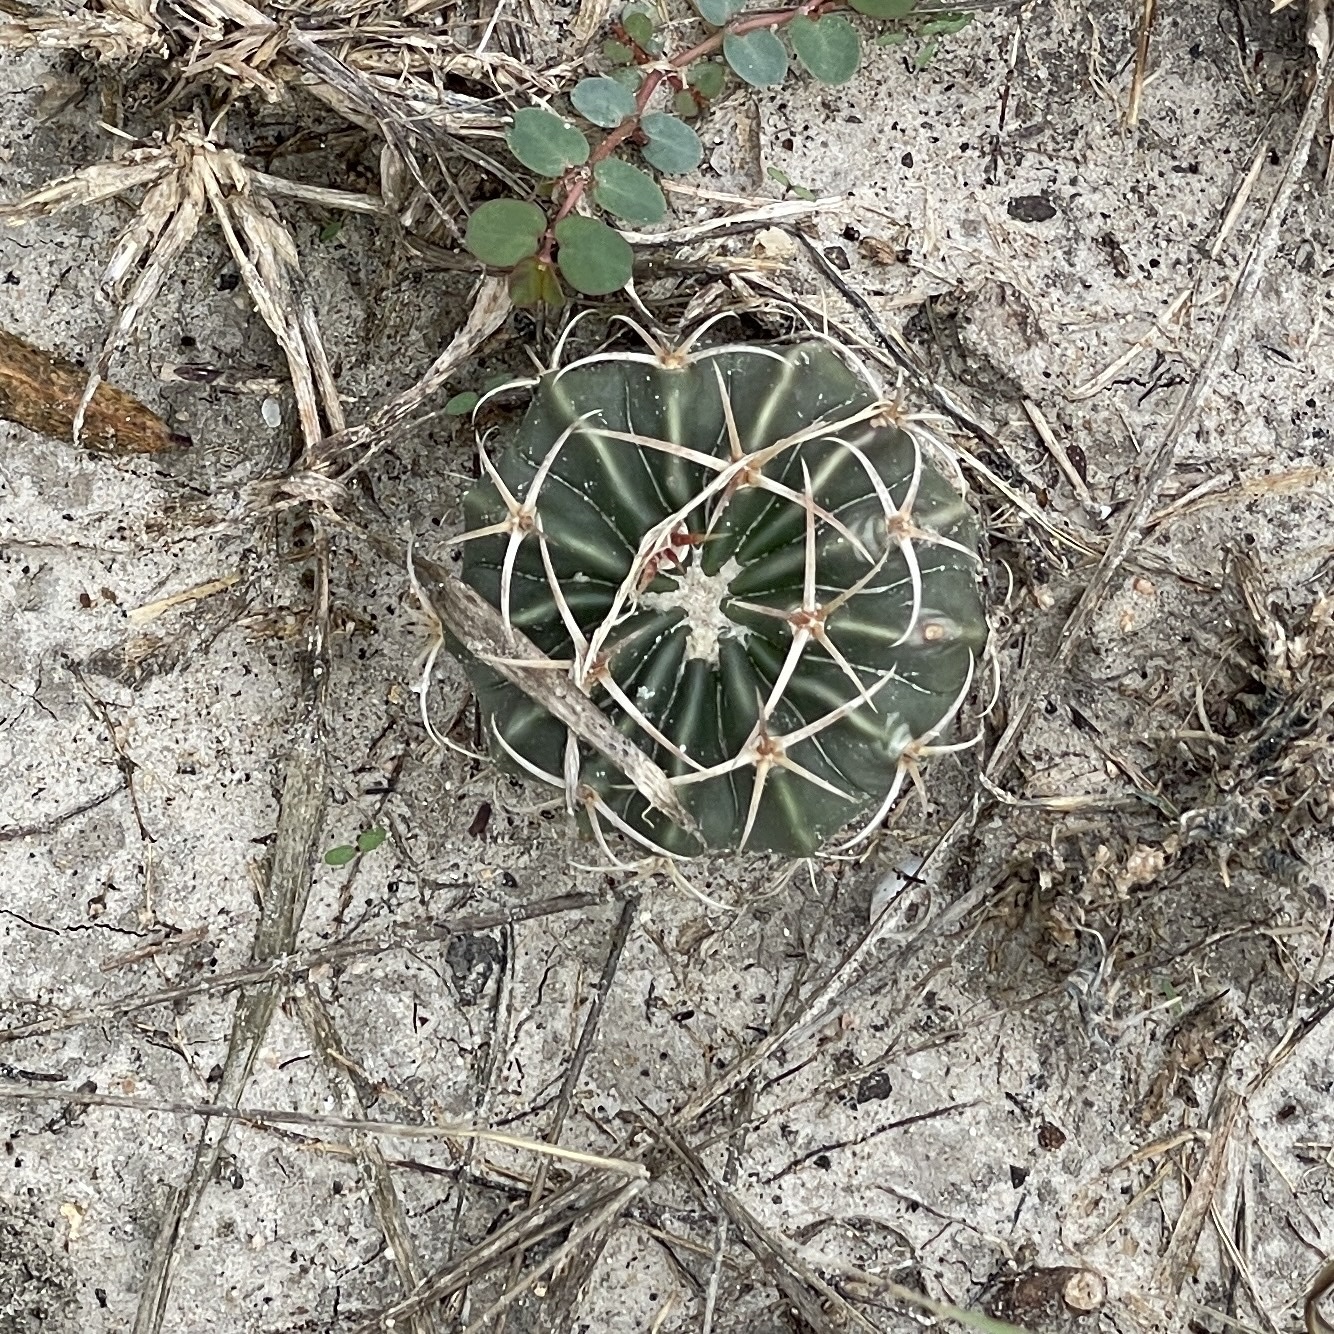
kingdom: Plantae
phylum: Tracheophyta
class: Magnoliopsida
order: Caryophyllales
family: Cactaceae
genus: Echinocactus
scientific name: Echinocactus texensis
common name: Devil's pincushion
